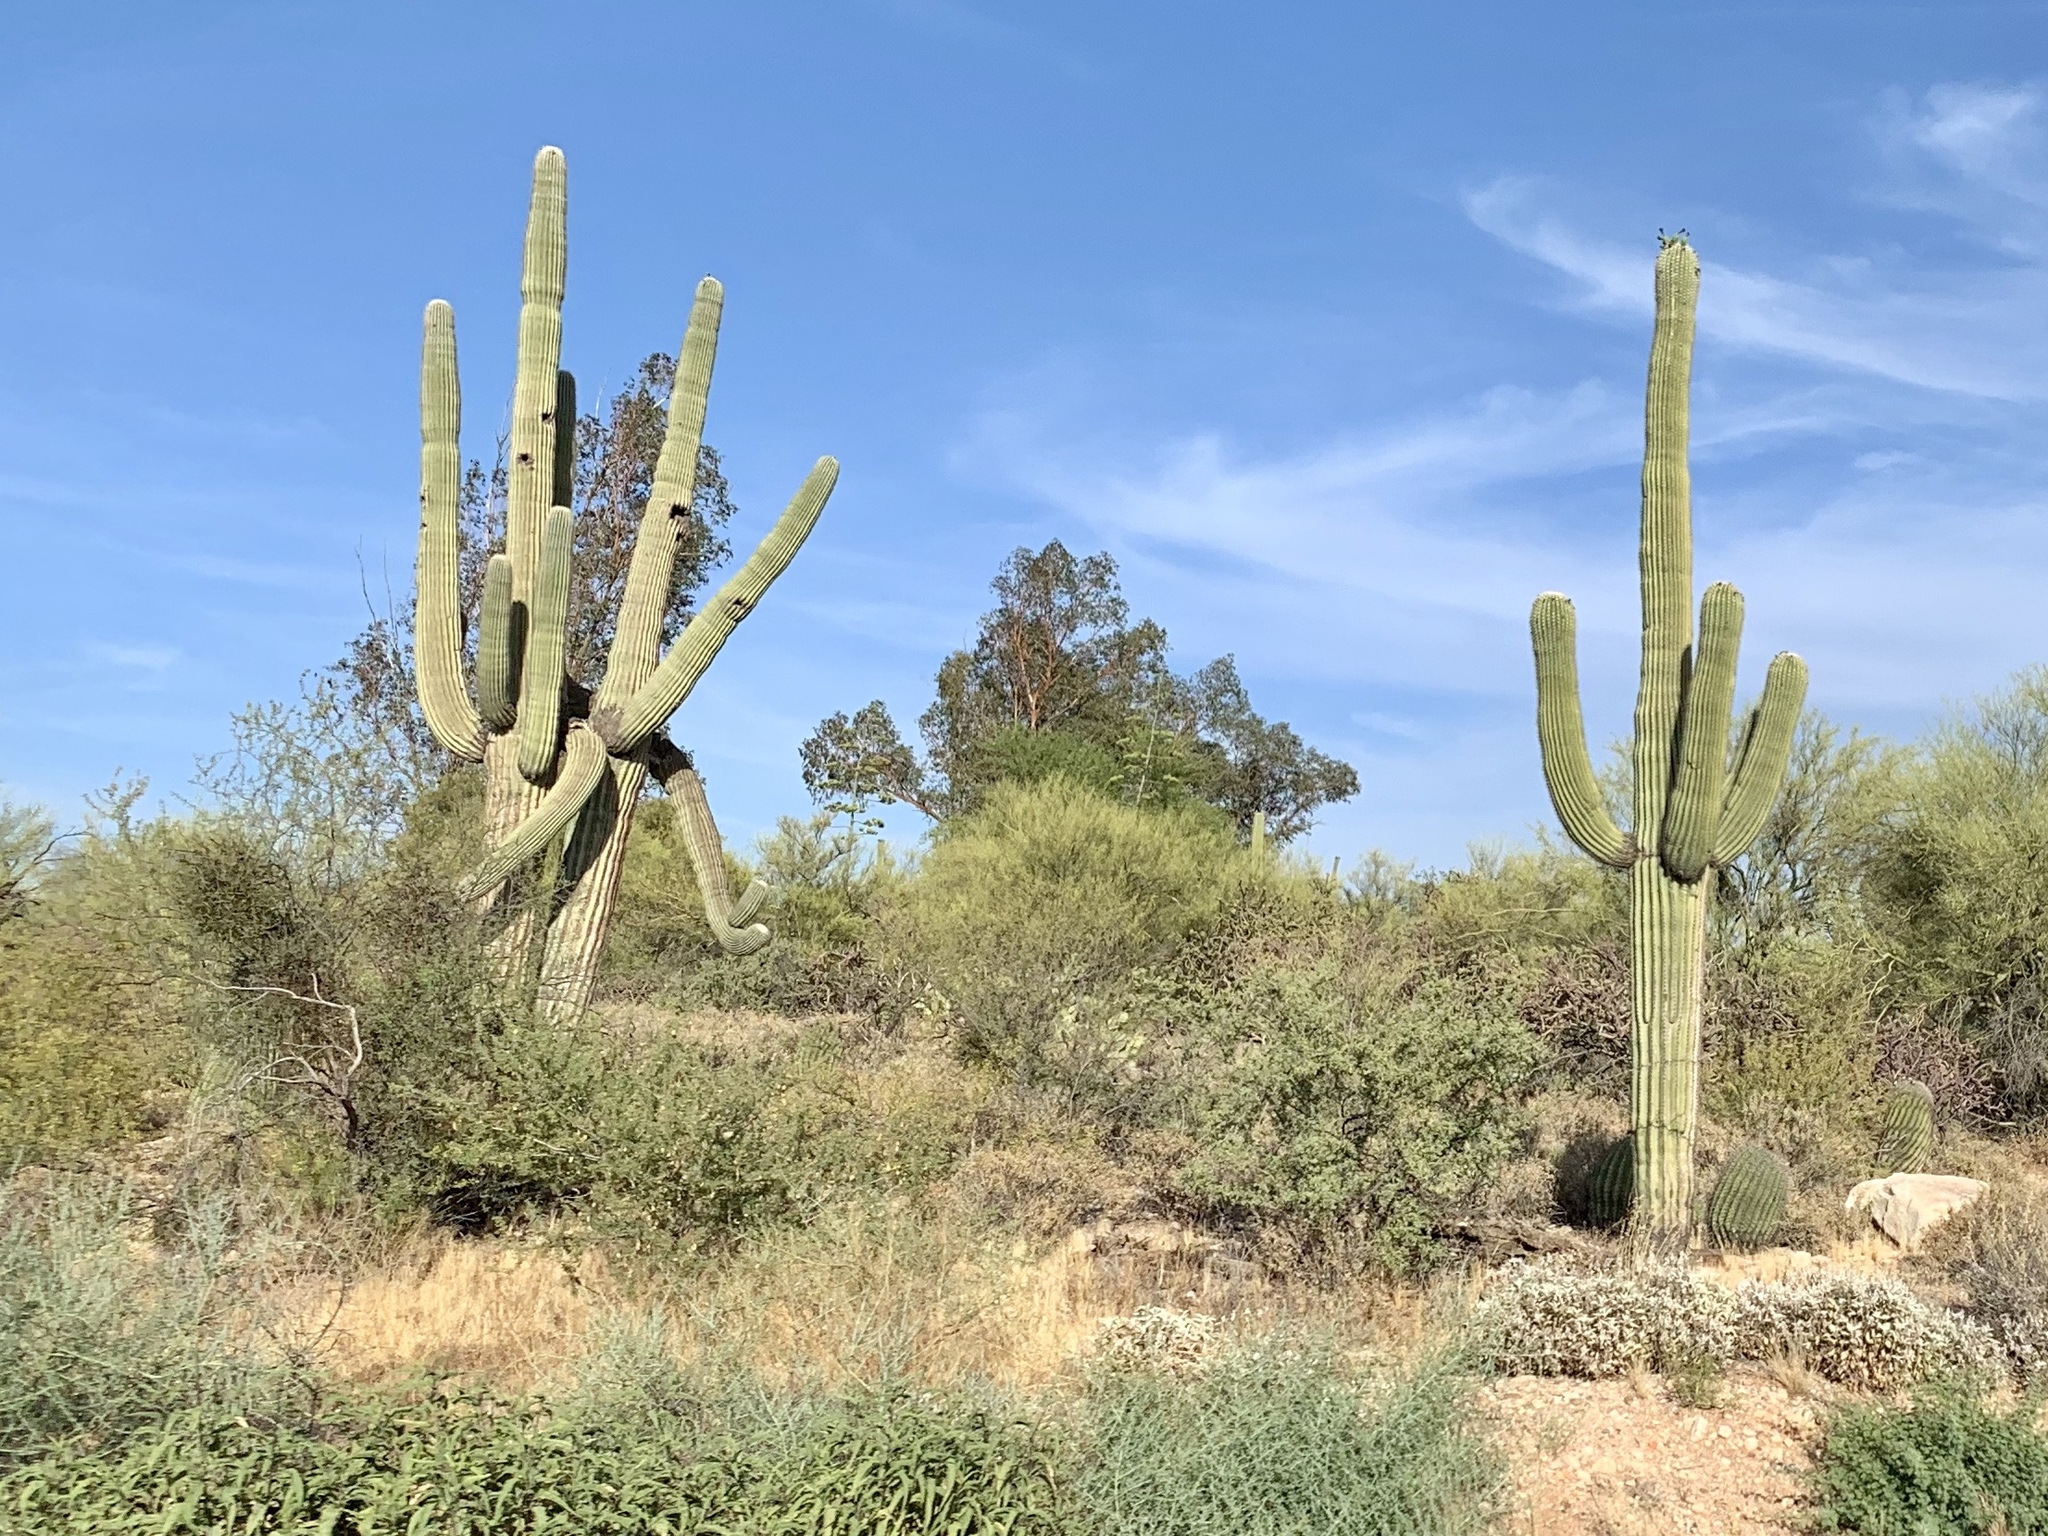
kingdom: Plantae
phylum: Tracheophyta
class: Magnoliopsida
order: Caryophyllales
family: Cactaceae
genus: Carnegiea
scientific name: Carnegiea gigantea
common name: Saguaro
